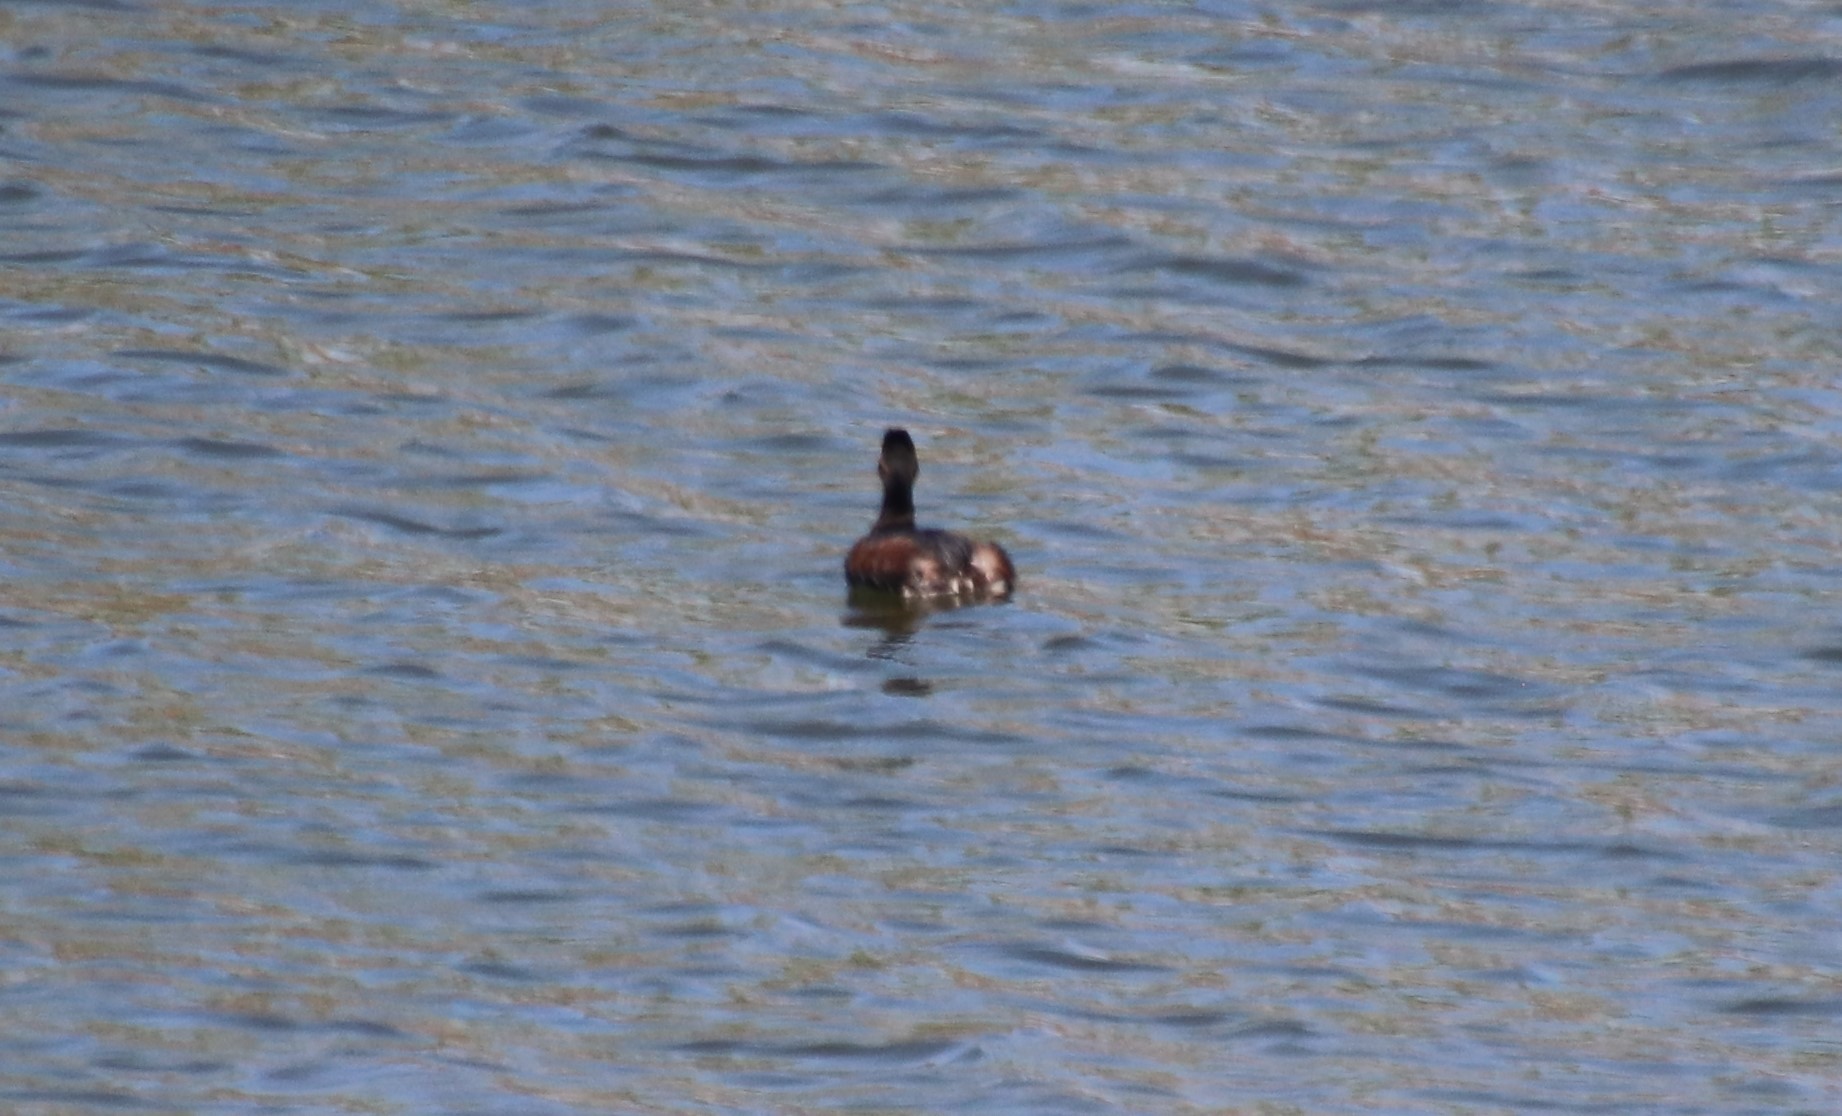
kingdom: Animalia
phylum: Chordata
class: Aves
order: Podicipediformes
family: Podicipedidae
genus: Podiceps
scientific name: Podiceps nigricollis
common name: Black-necked grebe
